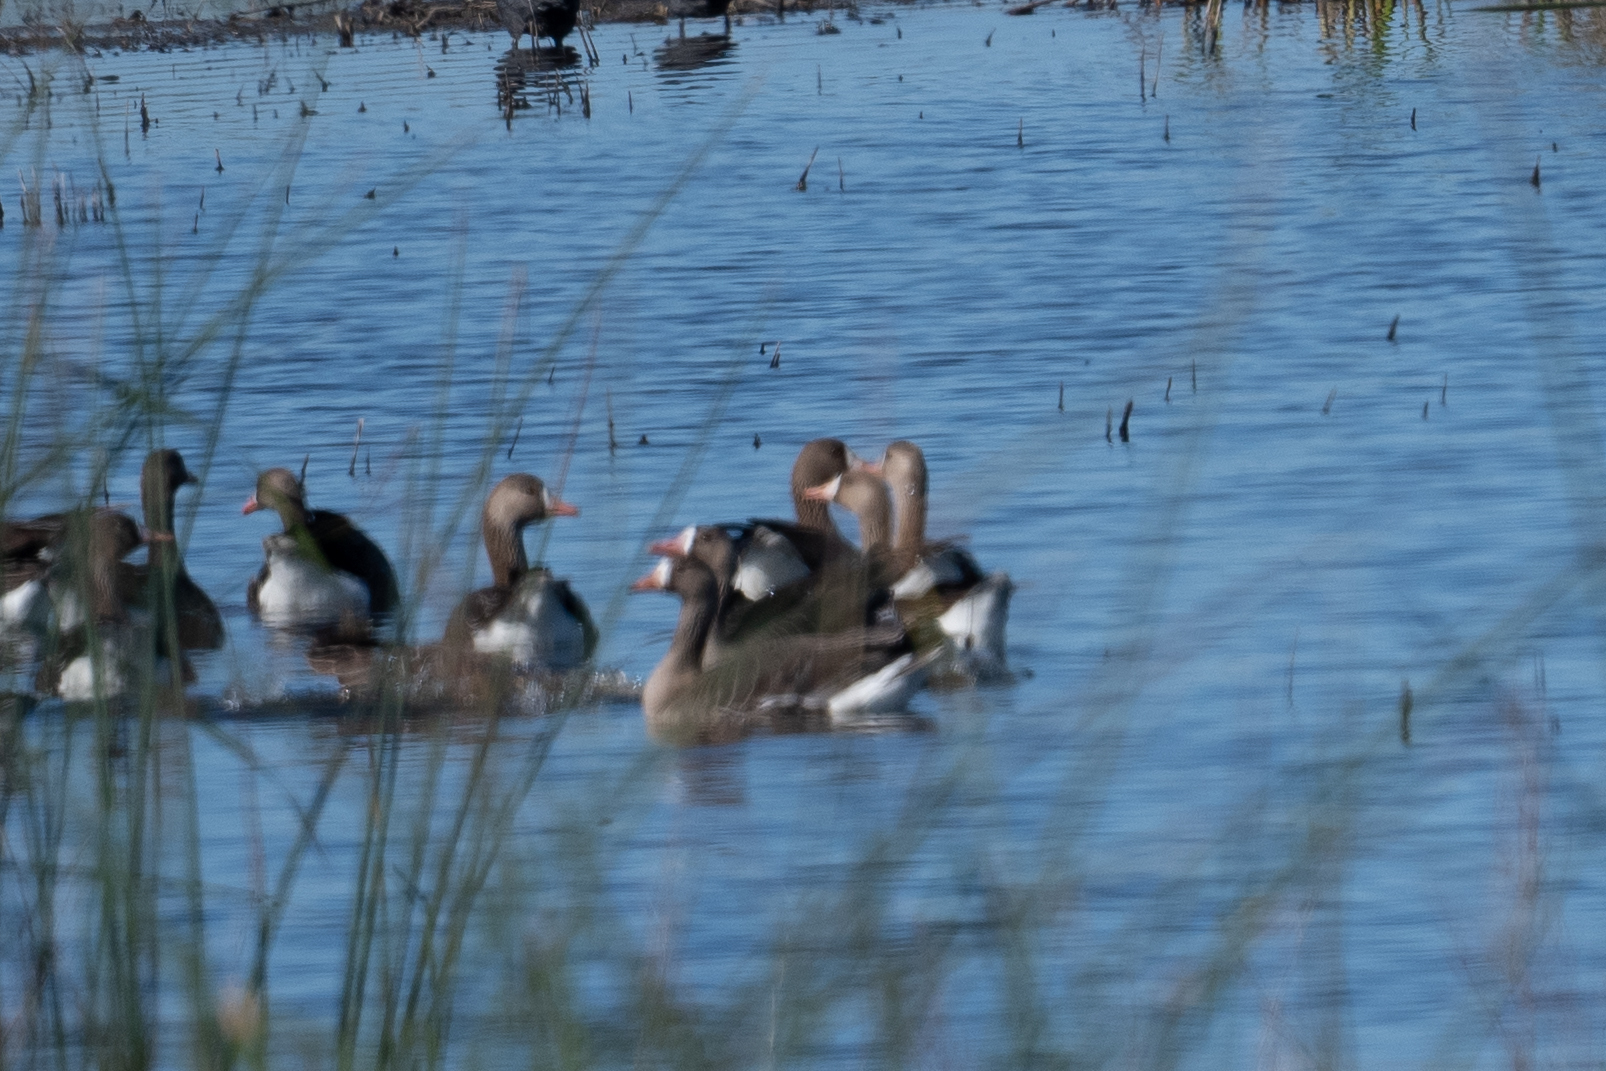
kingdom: Animalia
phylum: Chordata
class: Aves
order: Anseriformes
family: Anatidae
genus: Anser
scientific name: Anser albifrons
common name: Greater white-fronted goose
